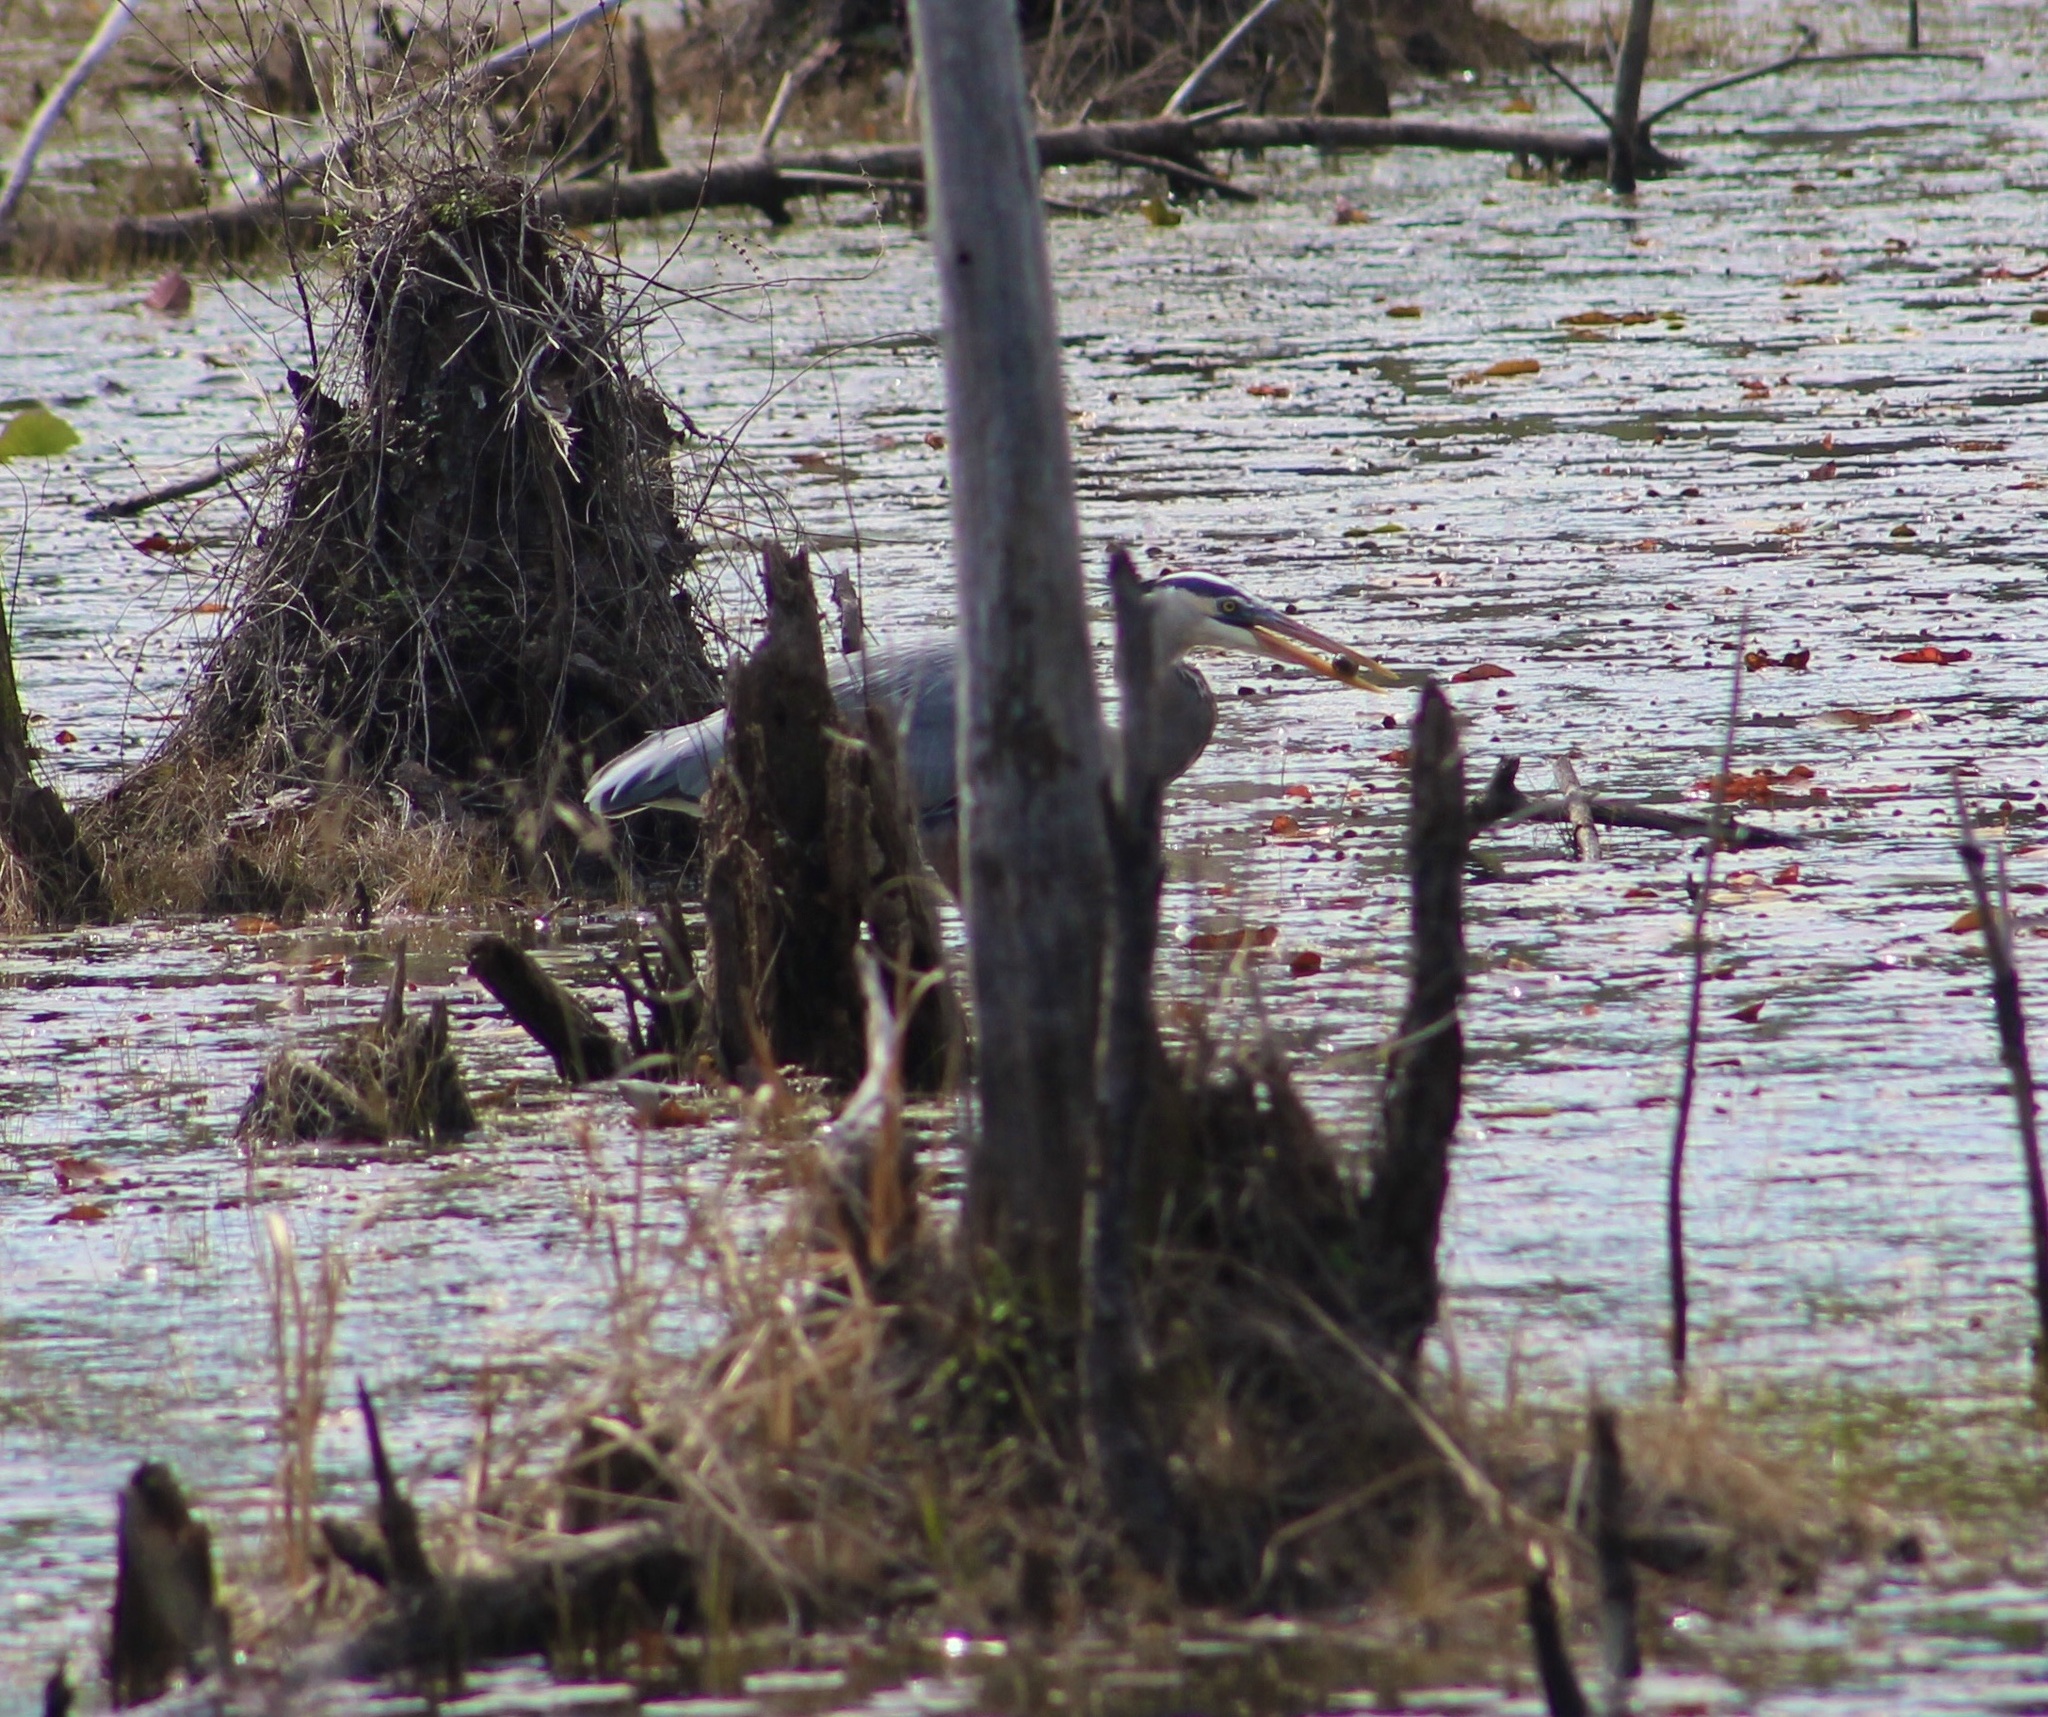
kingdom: Animalia
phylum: Chordata
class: Aves
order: Pelecaniformes
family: Ardeidae
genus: Ardea
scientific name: Ardea herodias
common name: Great blue heron
